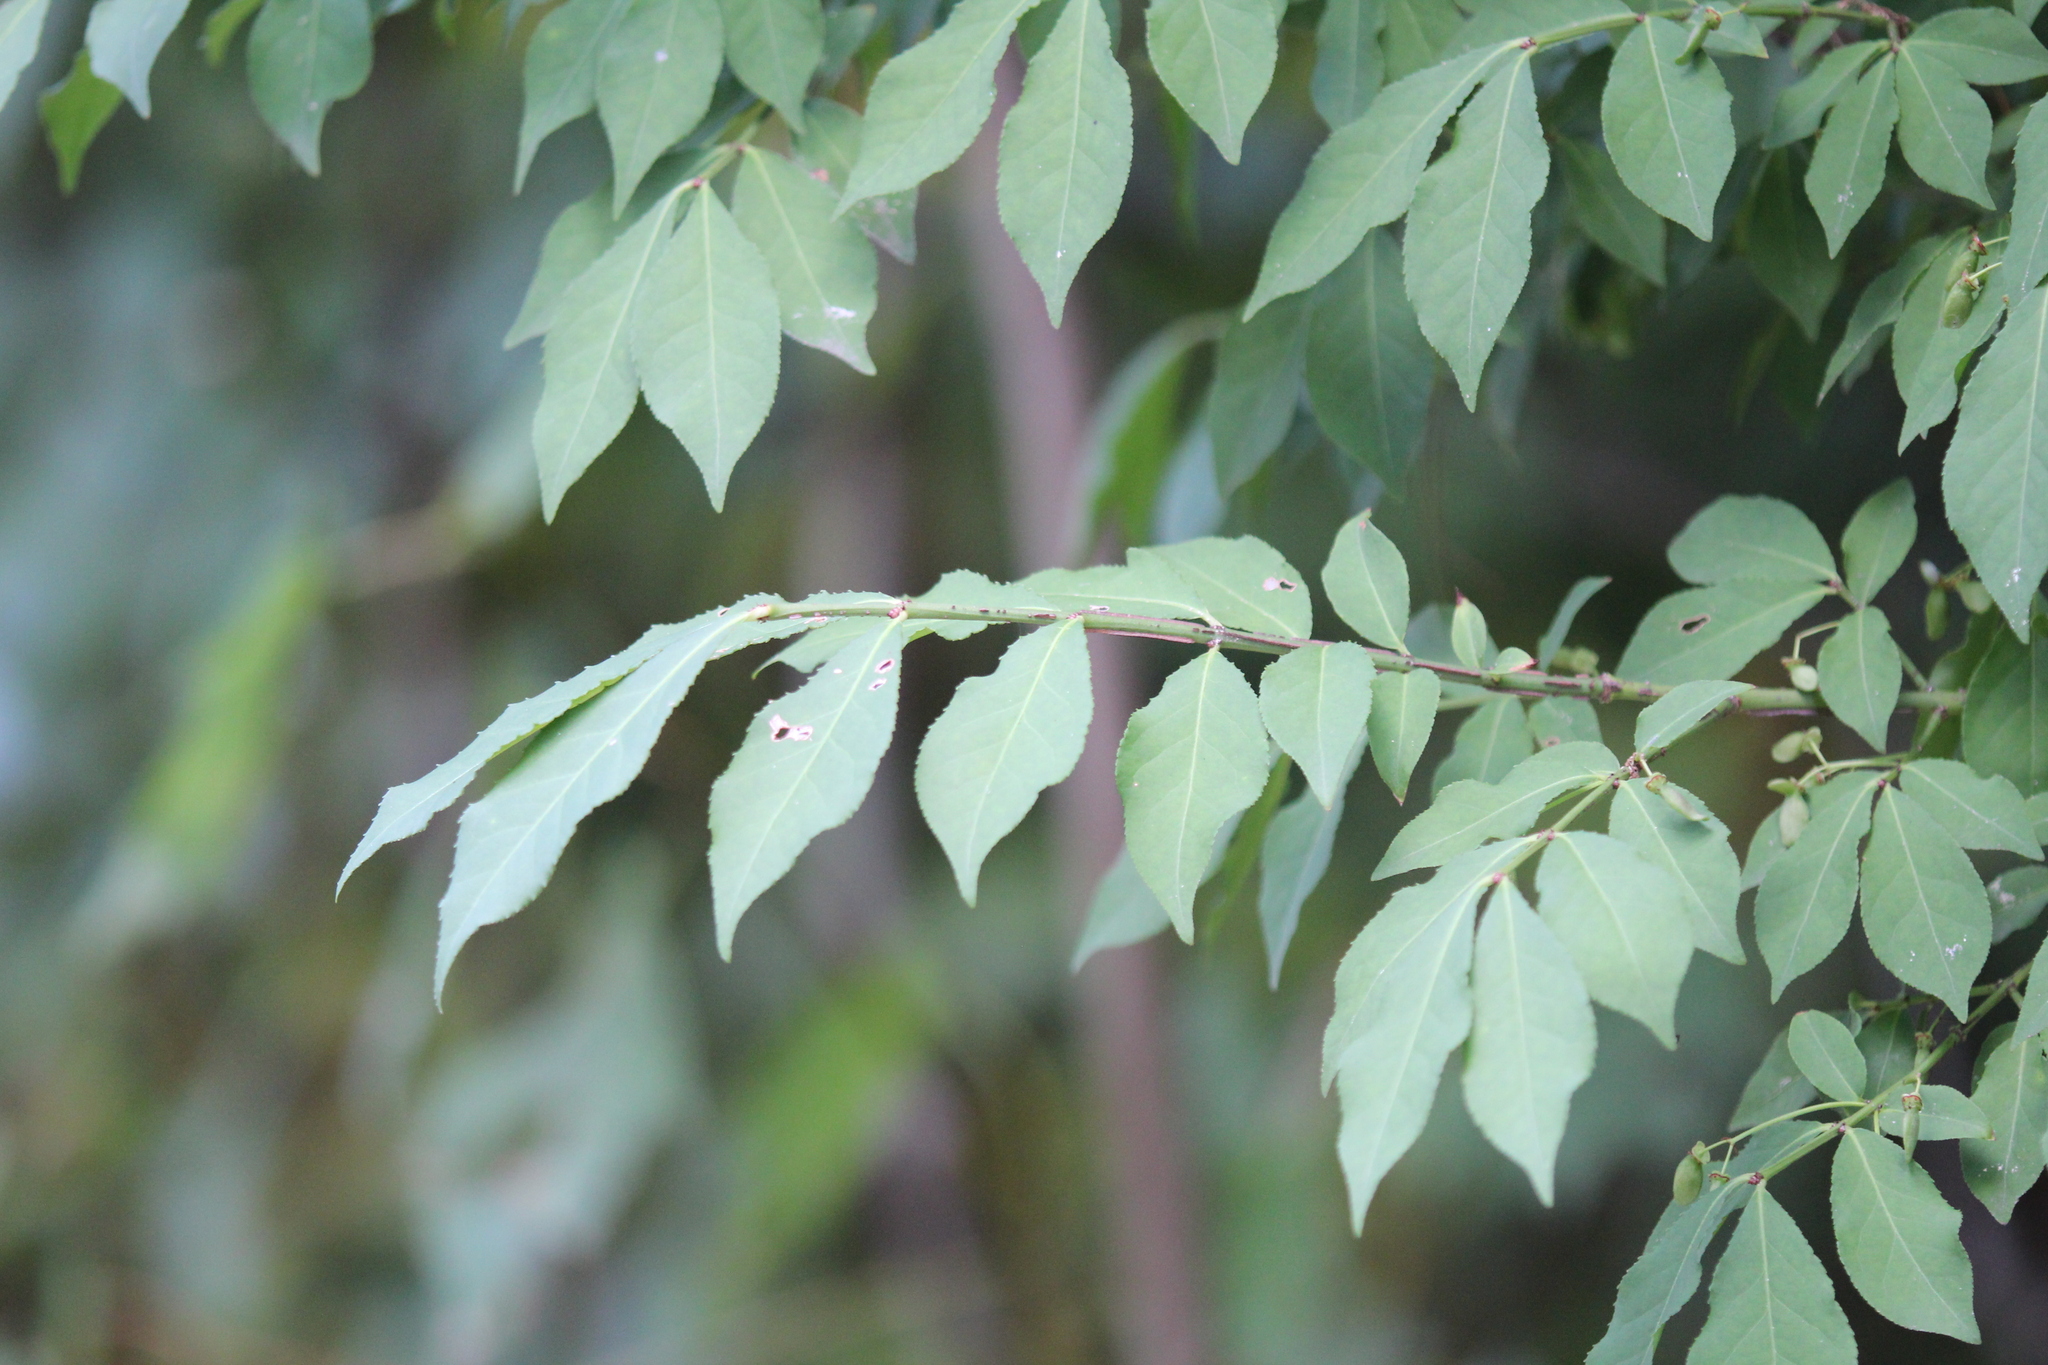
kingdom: Plantae
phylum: Tracheophyta
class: Magnoliopsida
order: Celastrales
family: Celastraceae
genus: Euonymus
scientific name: Euonymus alatus
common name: Winged euonymus
